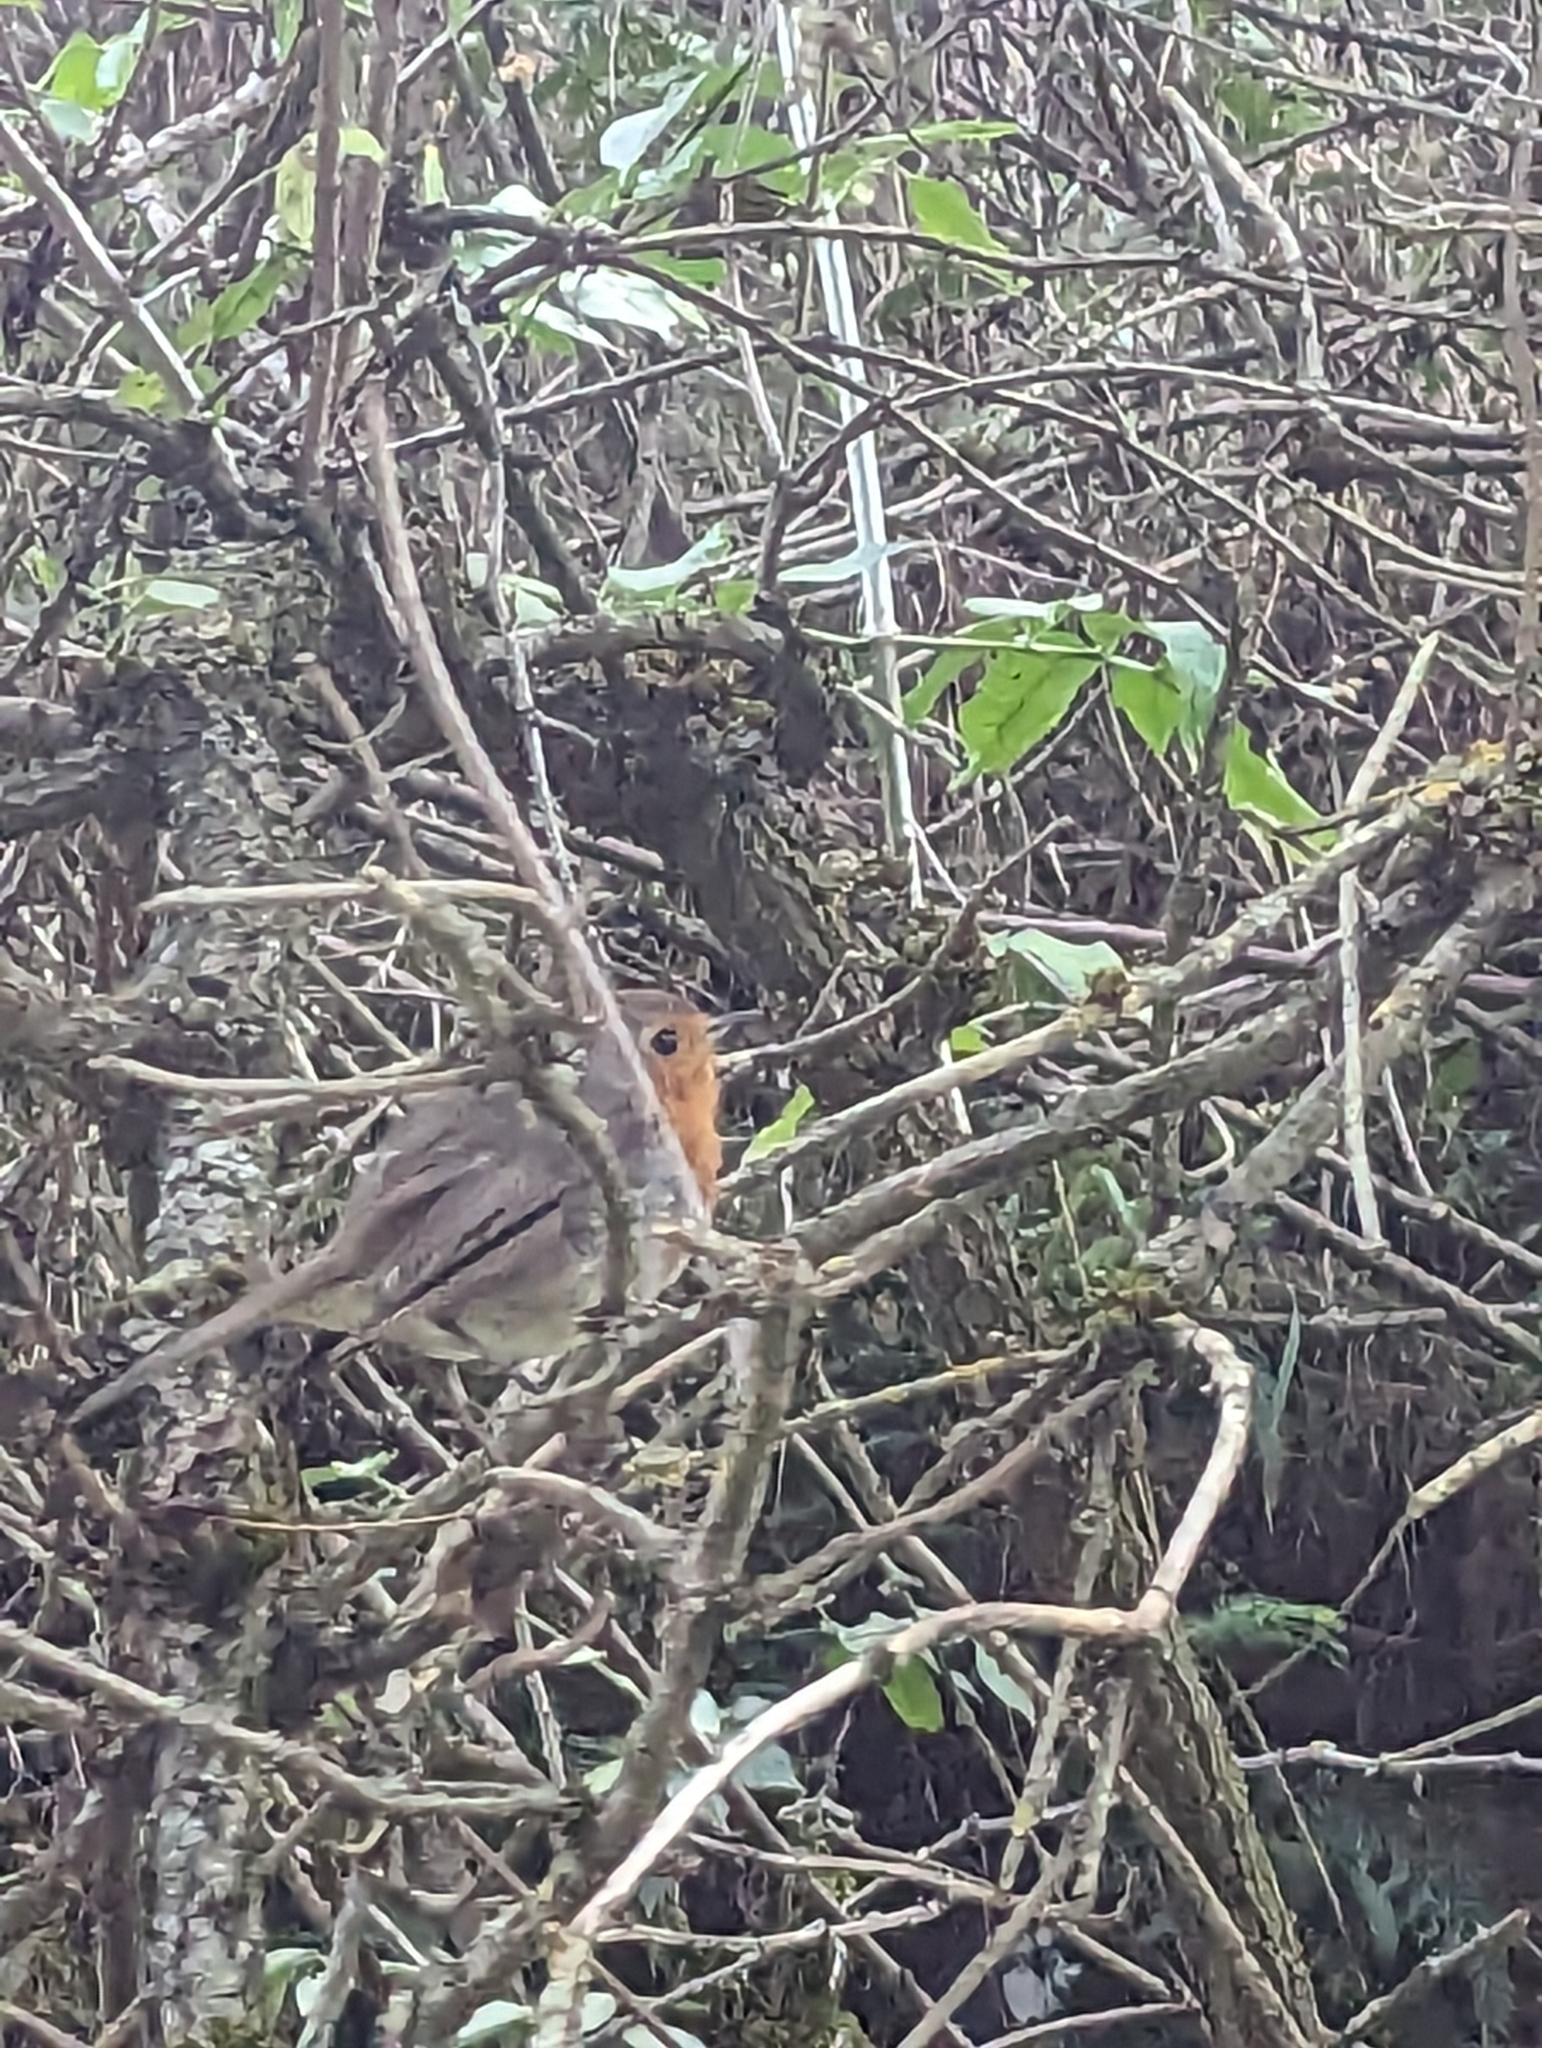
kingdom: Animalia
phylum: Chordata
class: Aves
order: Passeriformes
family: Muscicapidae
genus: Erithacus
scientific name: Erithacus rubecula
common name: European robin
